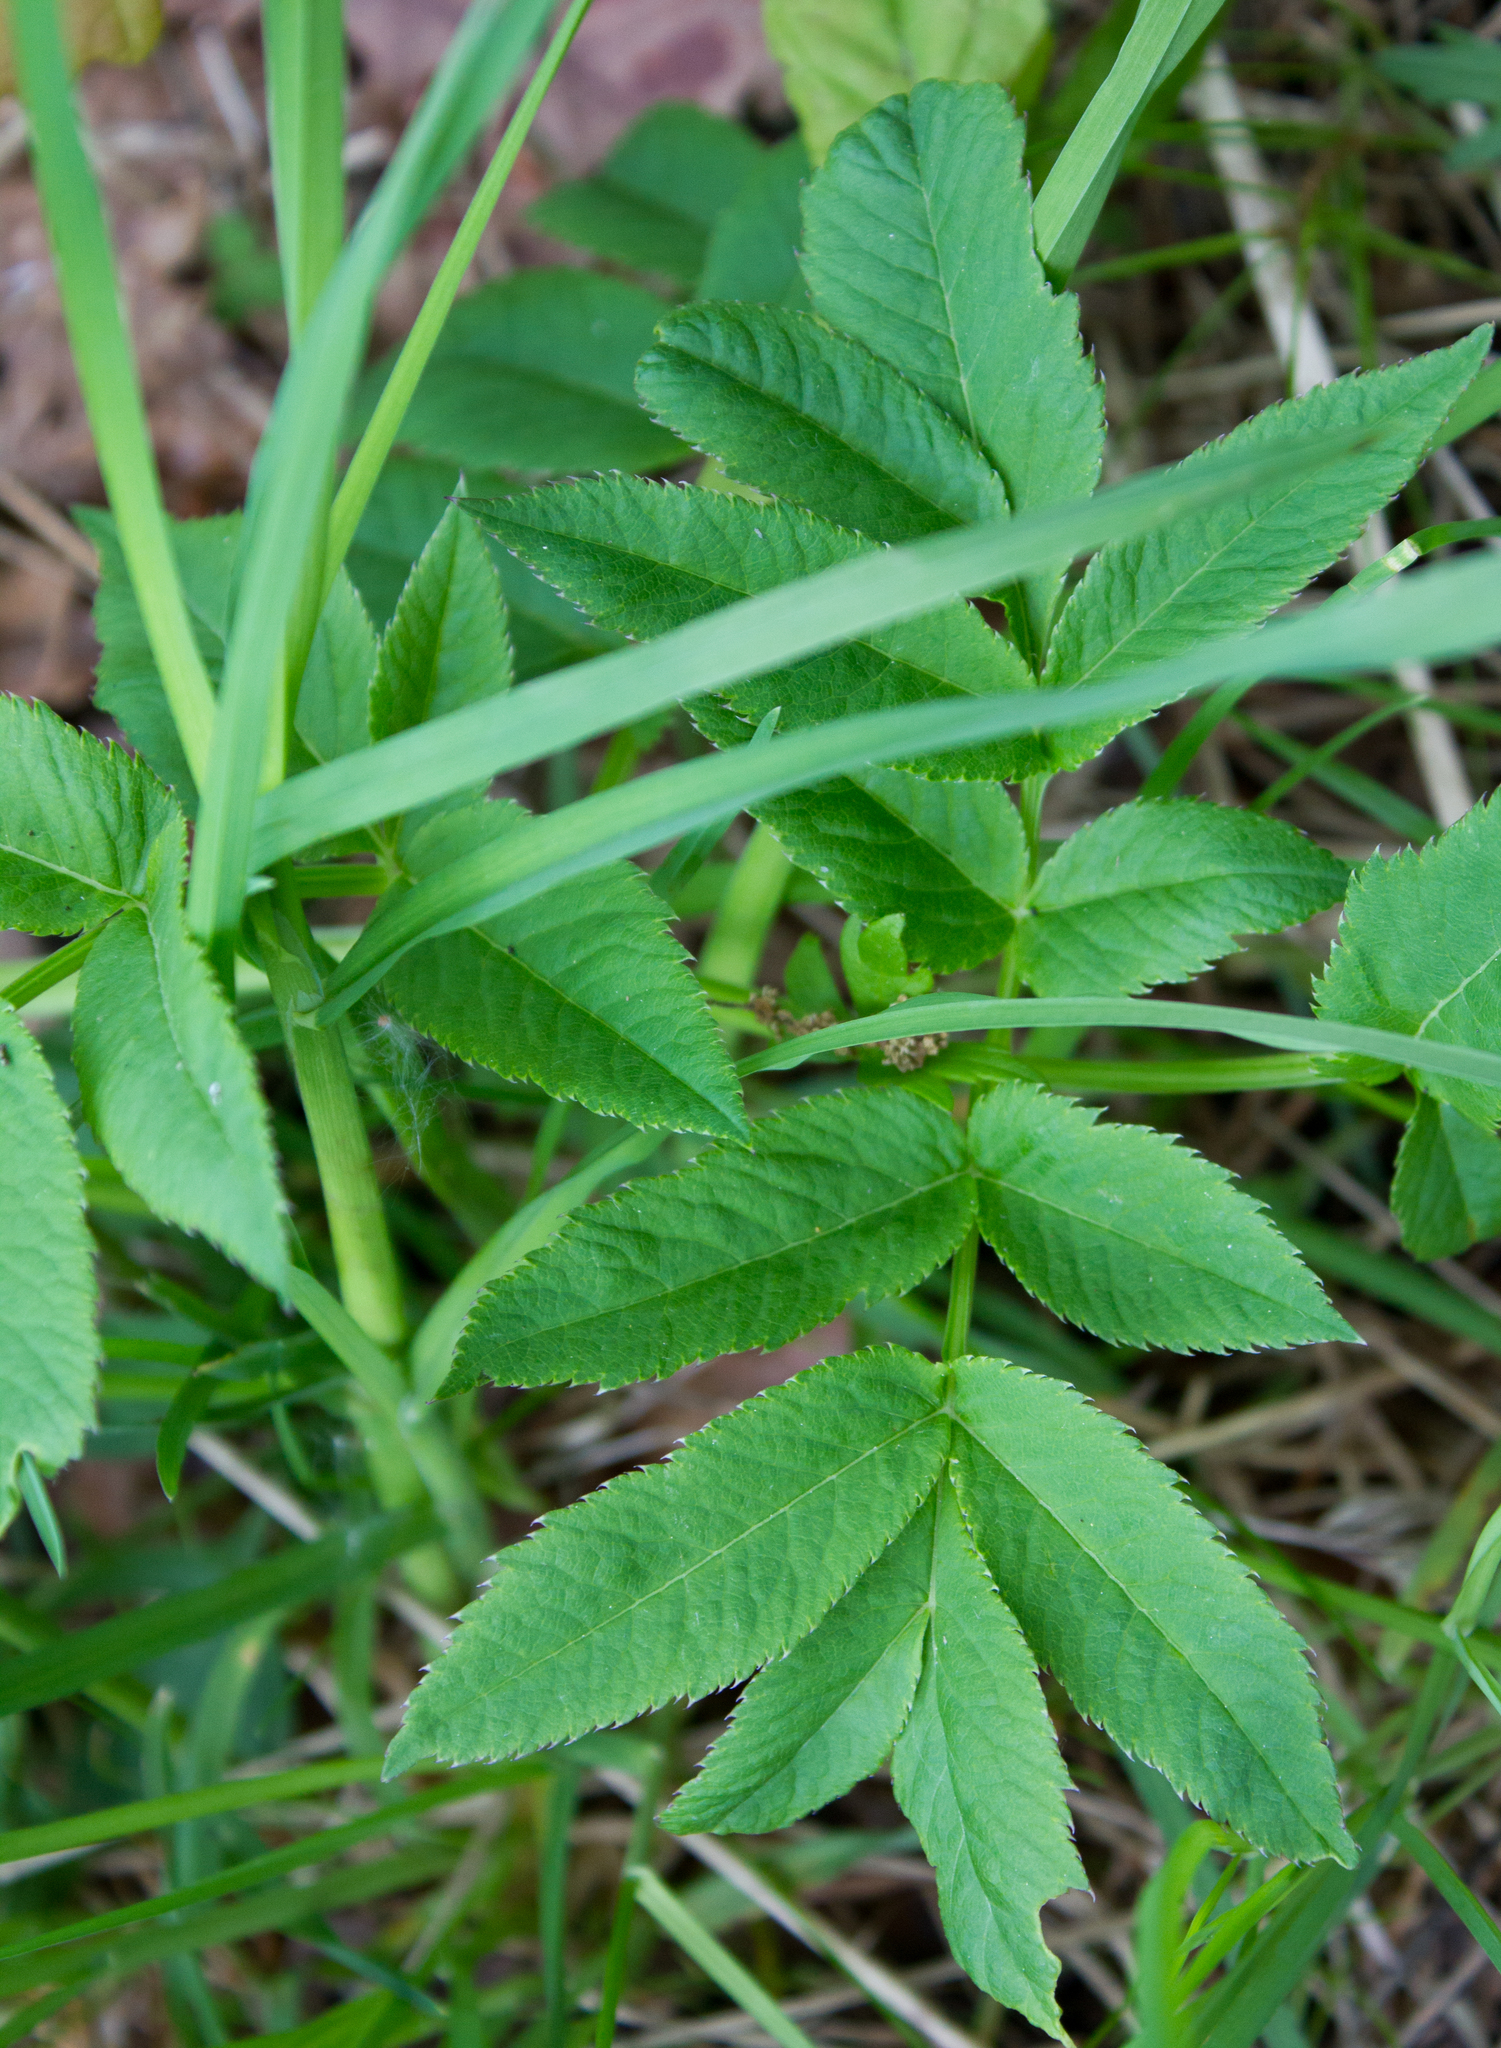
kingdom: Plantae
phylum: Tracheophyta
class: Magnoliopsida
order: Apiales
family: Apiaceae
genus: Angelica
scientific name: Angelica sylvestris
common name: Wild angelica
